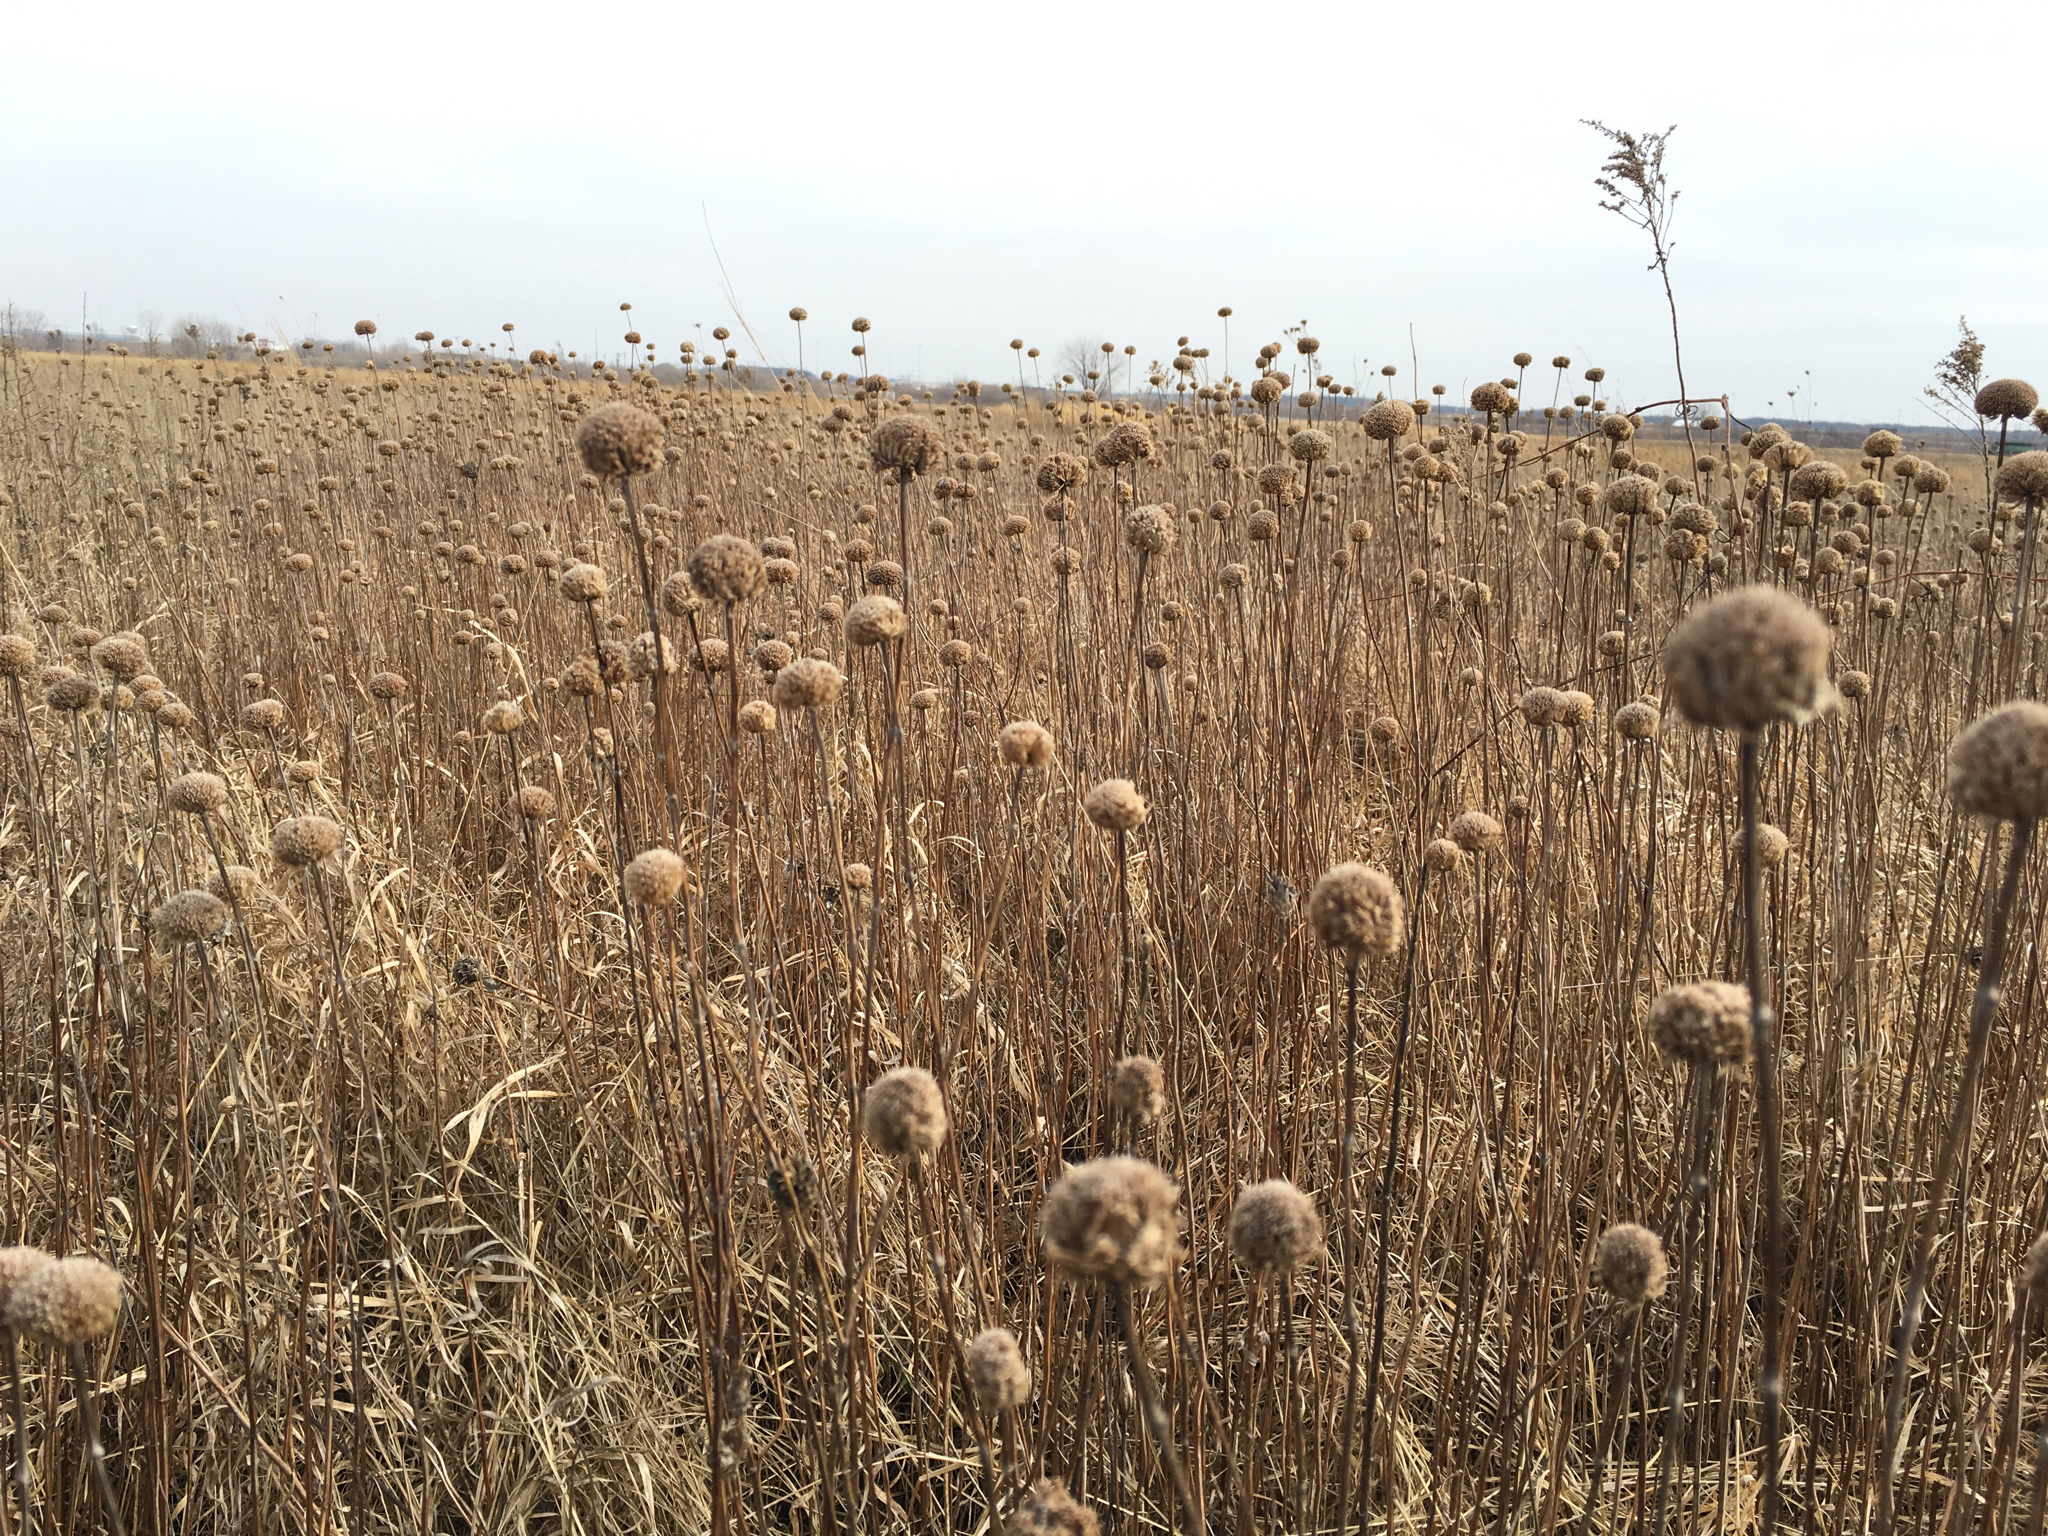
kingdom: Plantae
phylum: Tracheophyta
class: Magnoliopsida
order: Lamiales
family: Lamiaceae
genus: Monarda
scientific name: Monarda fistulosa
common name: Purple beebalm
